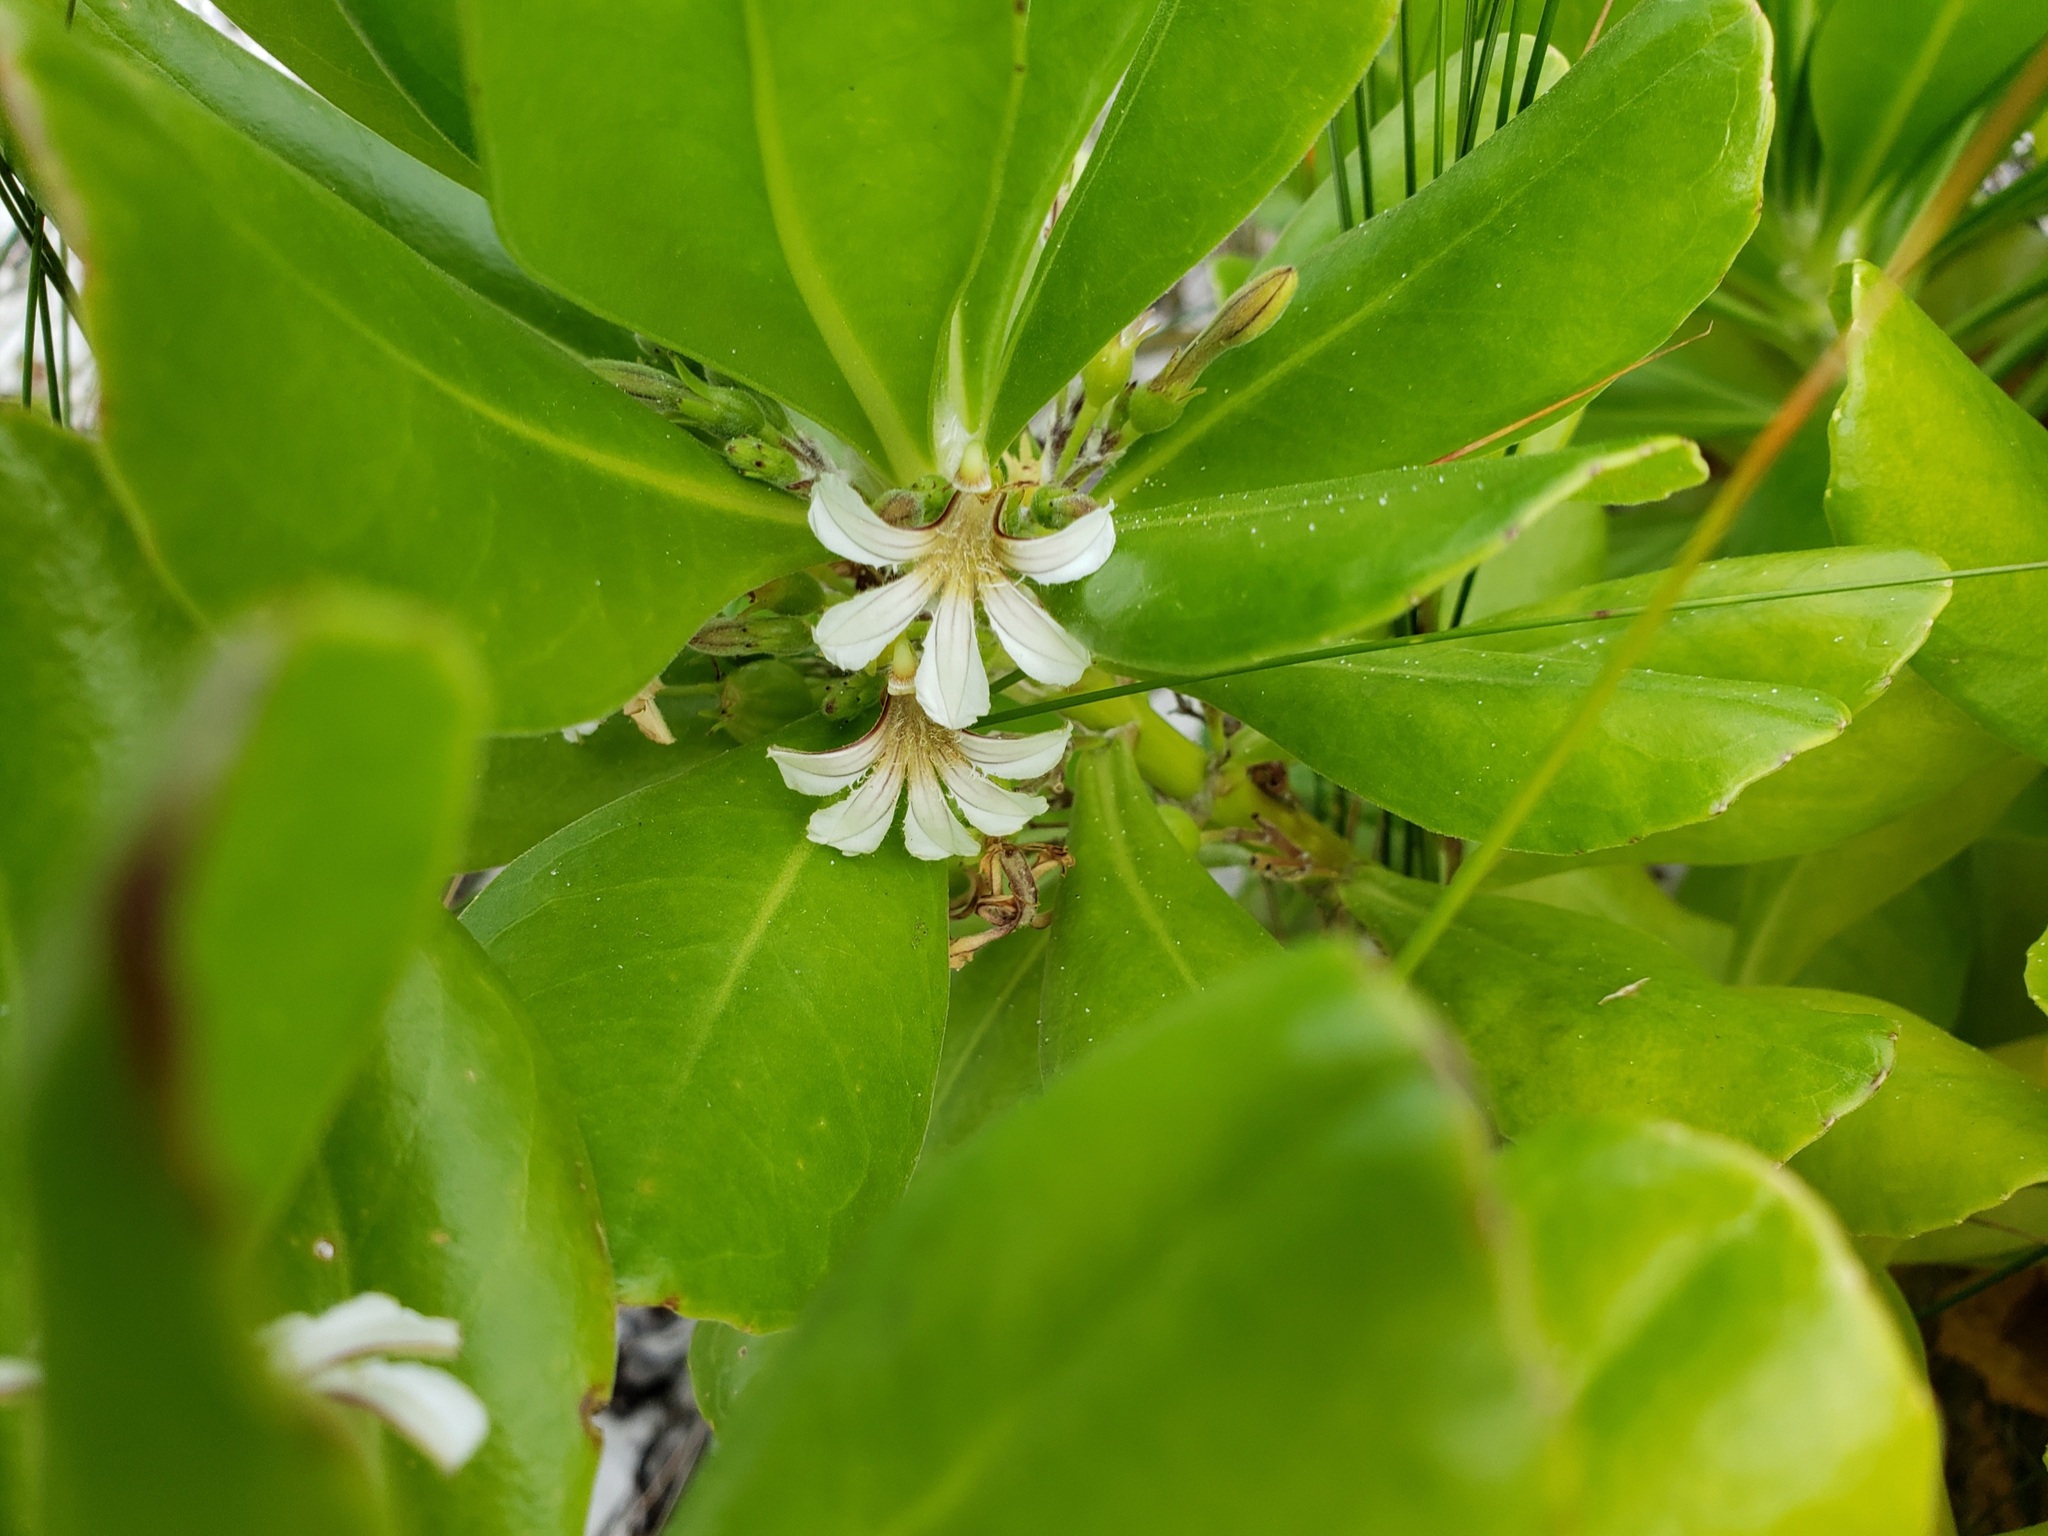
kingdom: Plantae
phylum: Tracheophyta
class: Magnoliopsida
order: Asterales
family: Goodeniaceae
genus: Scaevola
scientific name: Scaevola taccada
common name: Sea lettucetree
